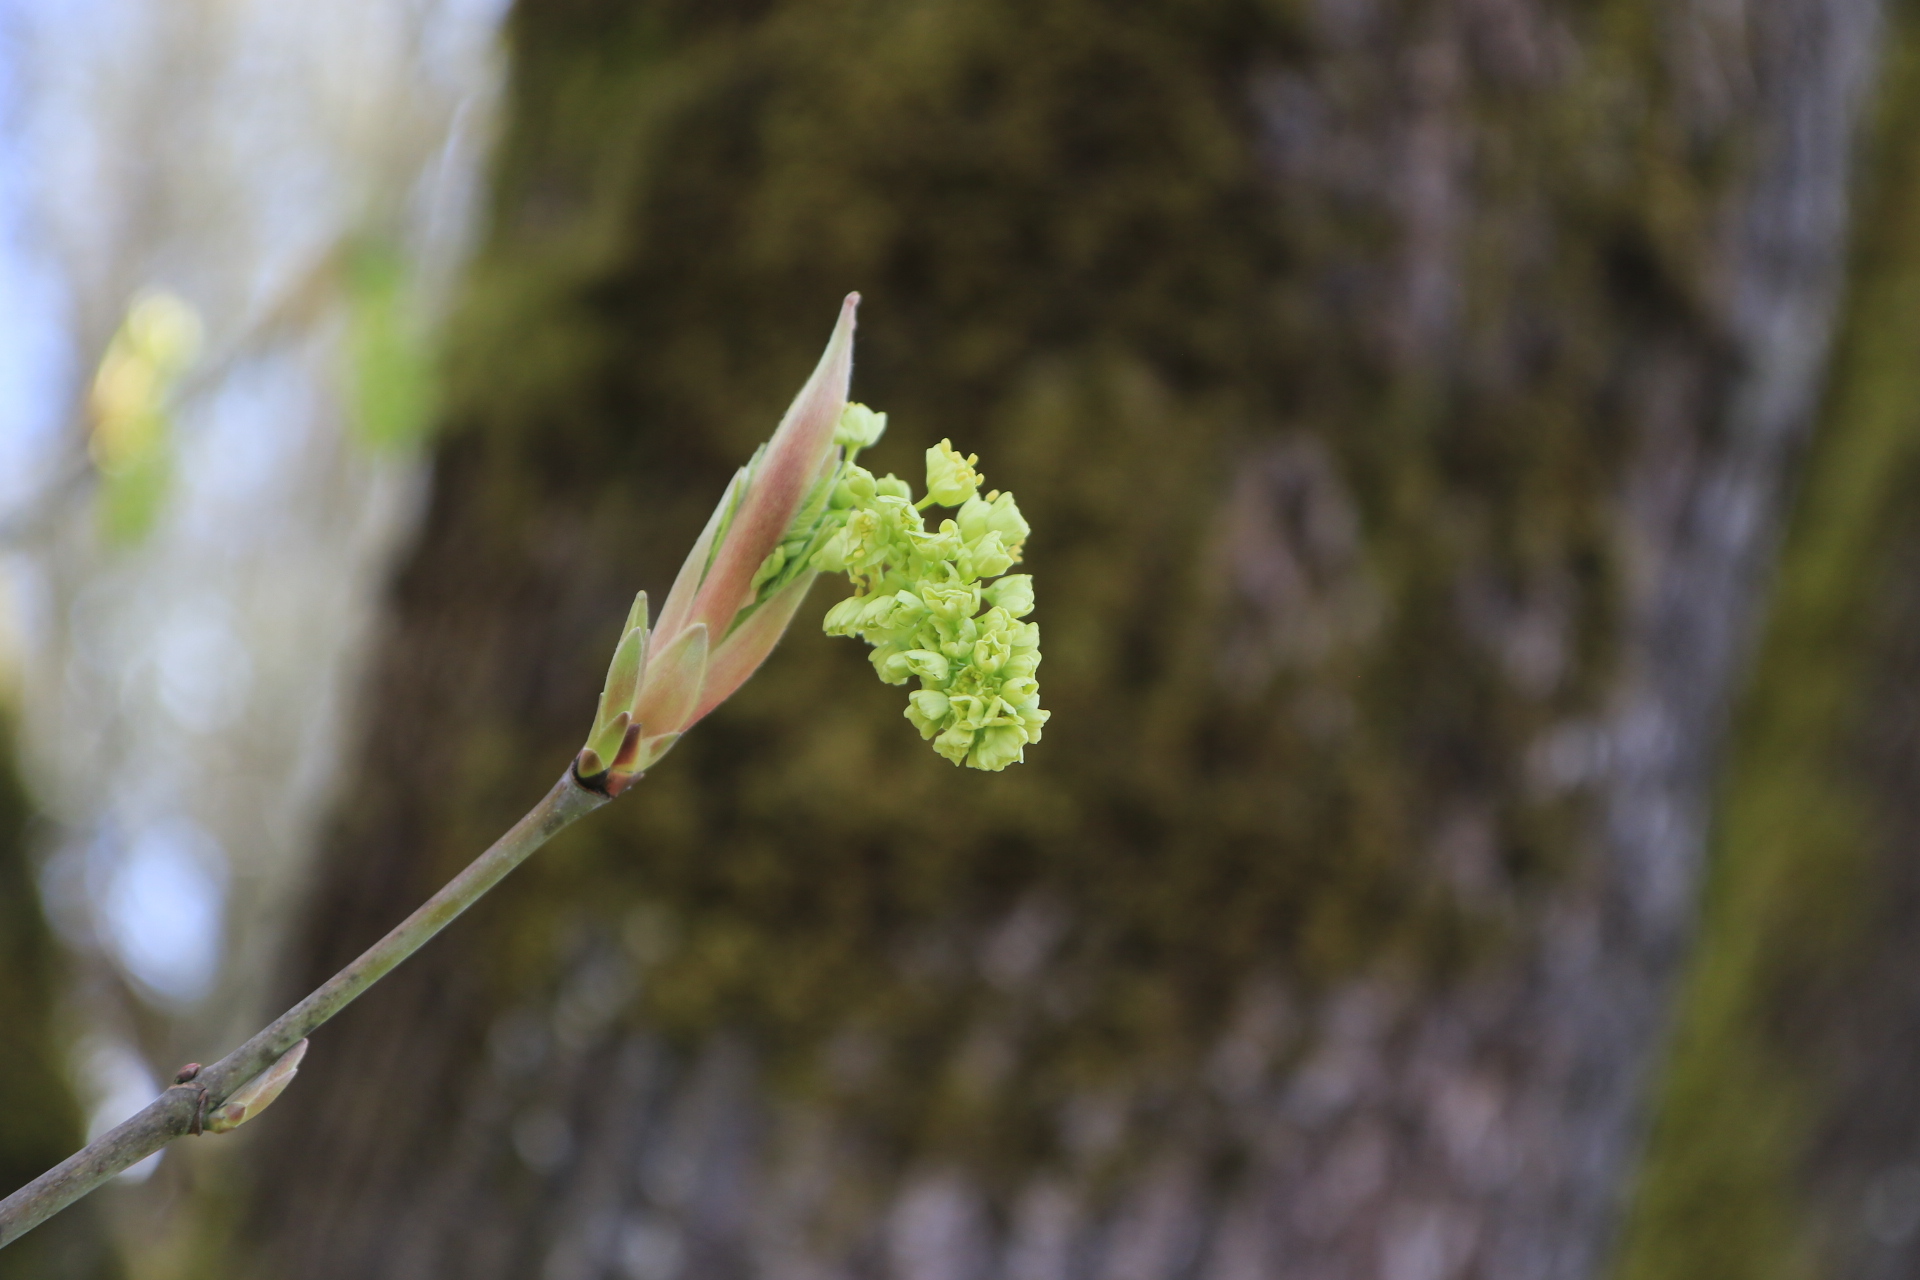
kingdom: Plantae
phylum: Tracheophyta
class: Magnoliopsida
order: Sapindales
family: Sapindaceae
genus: Acer
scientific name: Acer macrophyllum
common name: Oregon maple
